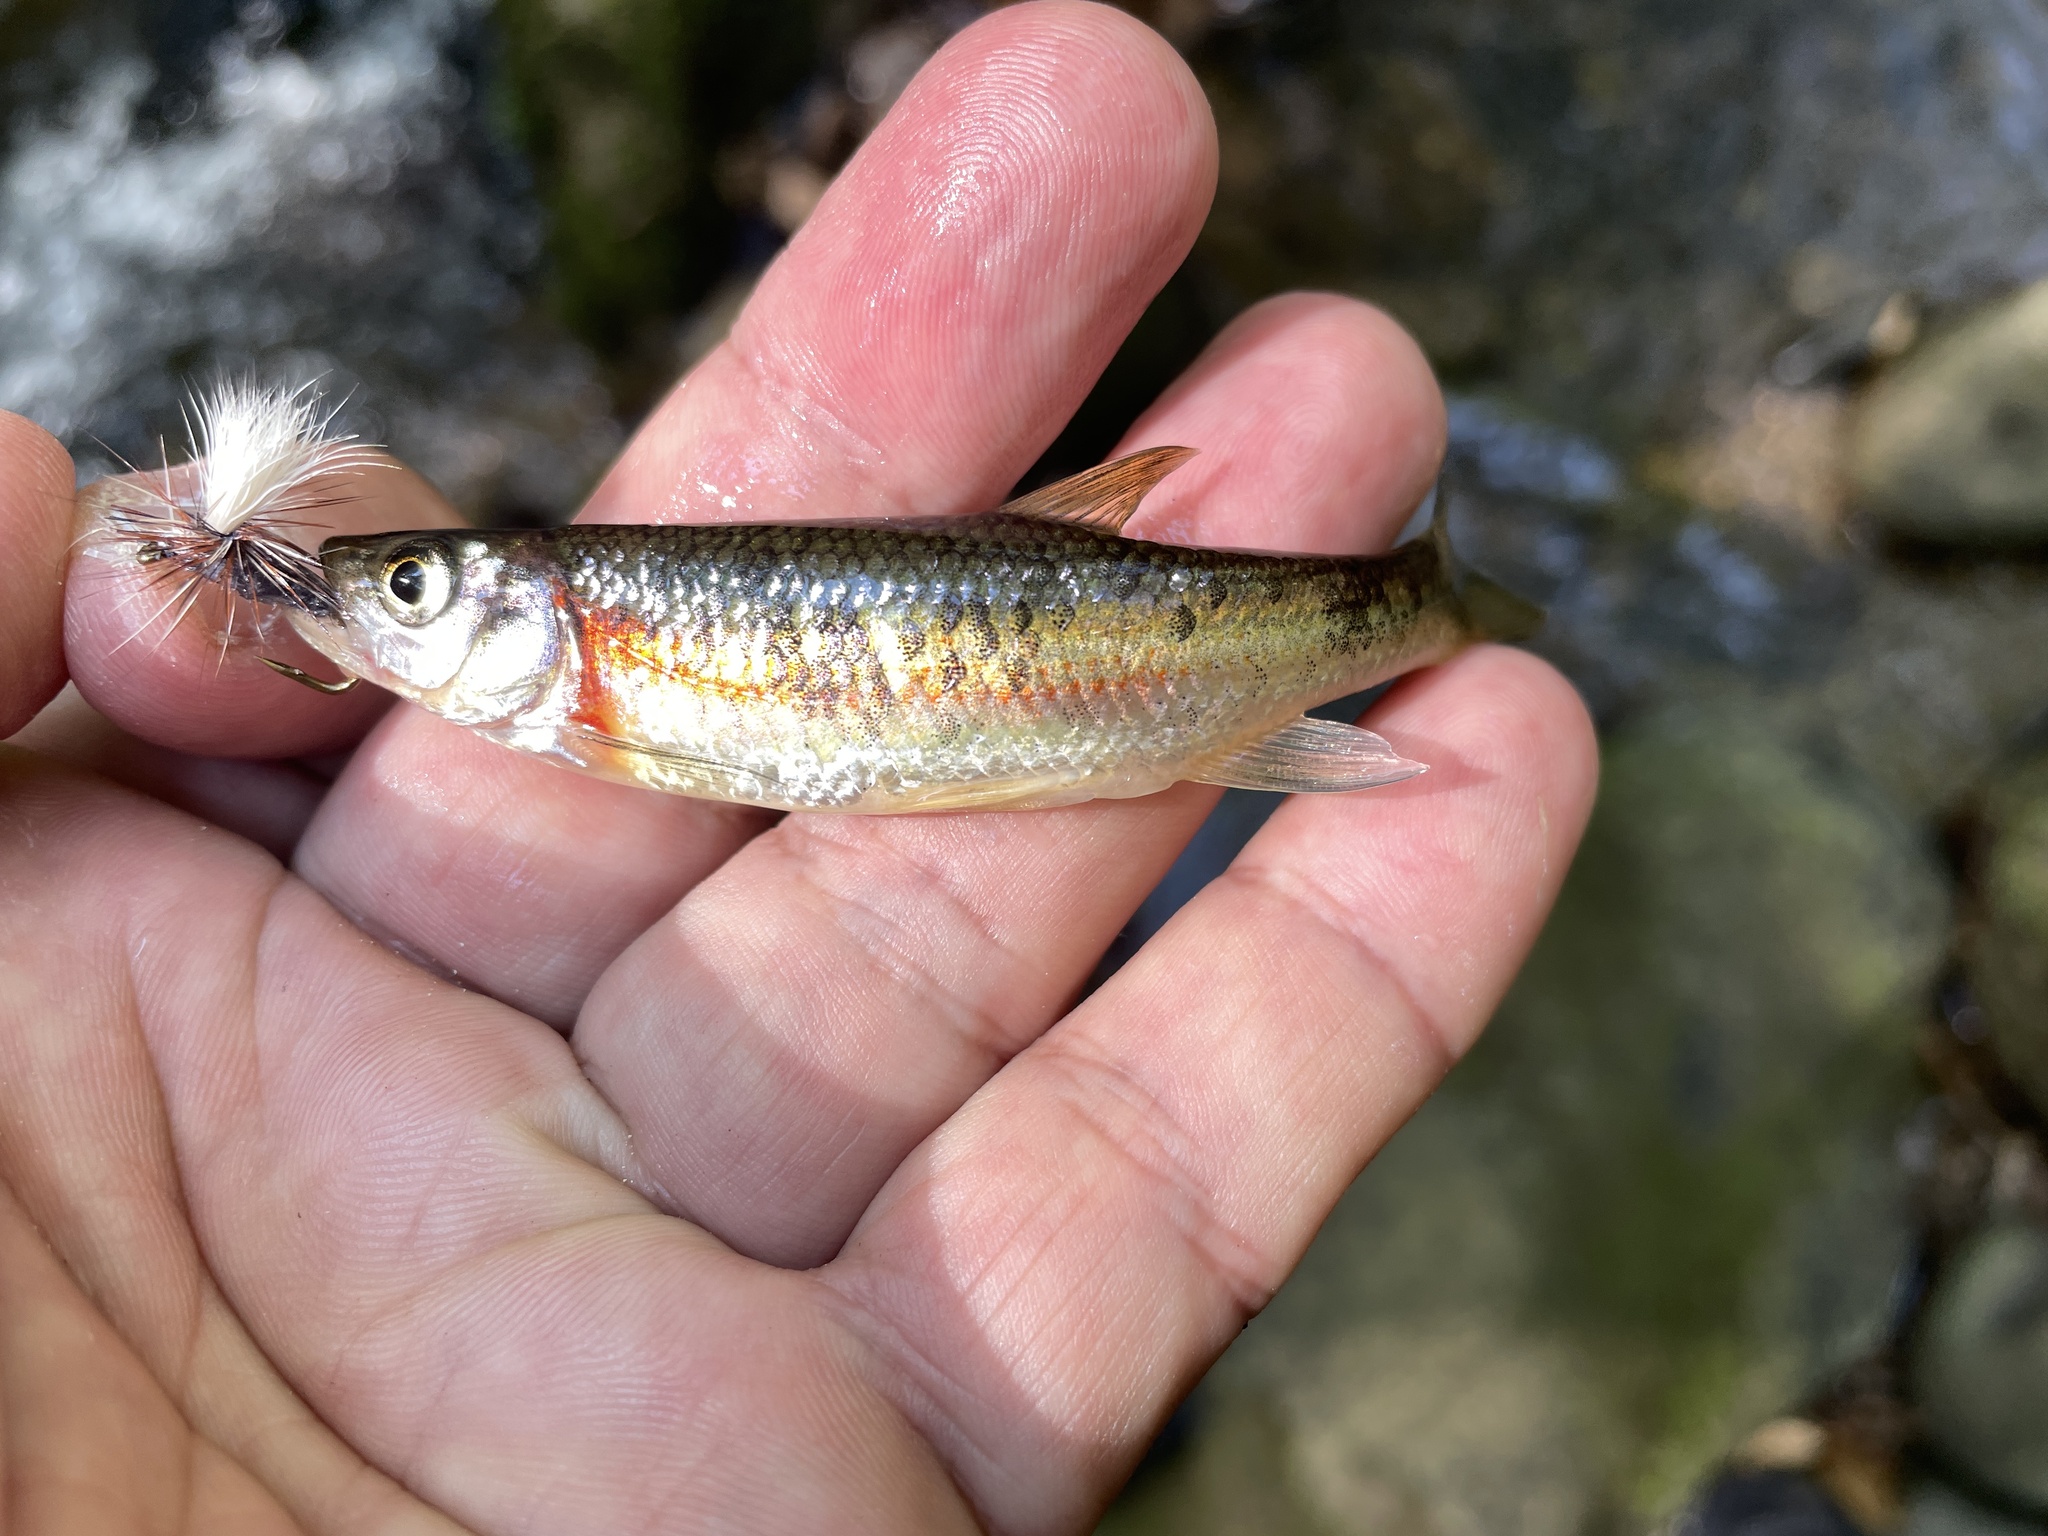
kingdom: Animalia
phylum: Chordata
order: Cypriniformes
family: Cyprinidae
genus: Clinostomus
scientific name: Clinostomus funduloides
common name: Rosyside dace
